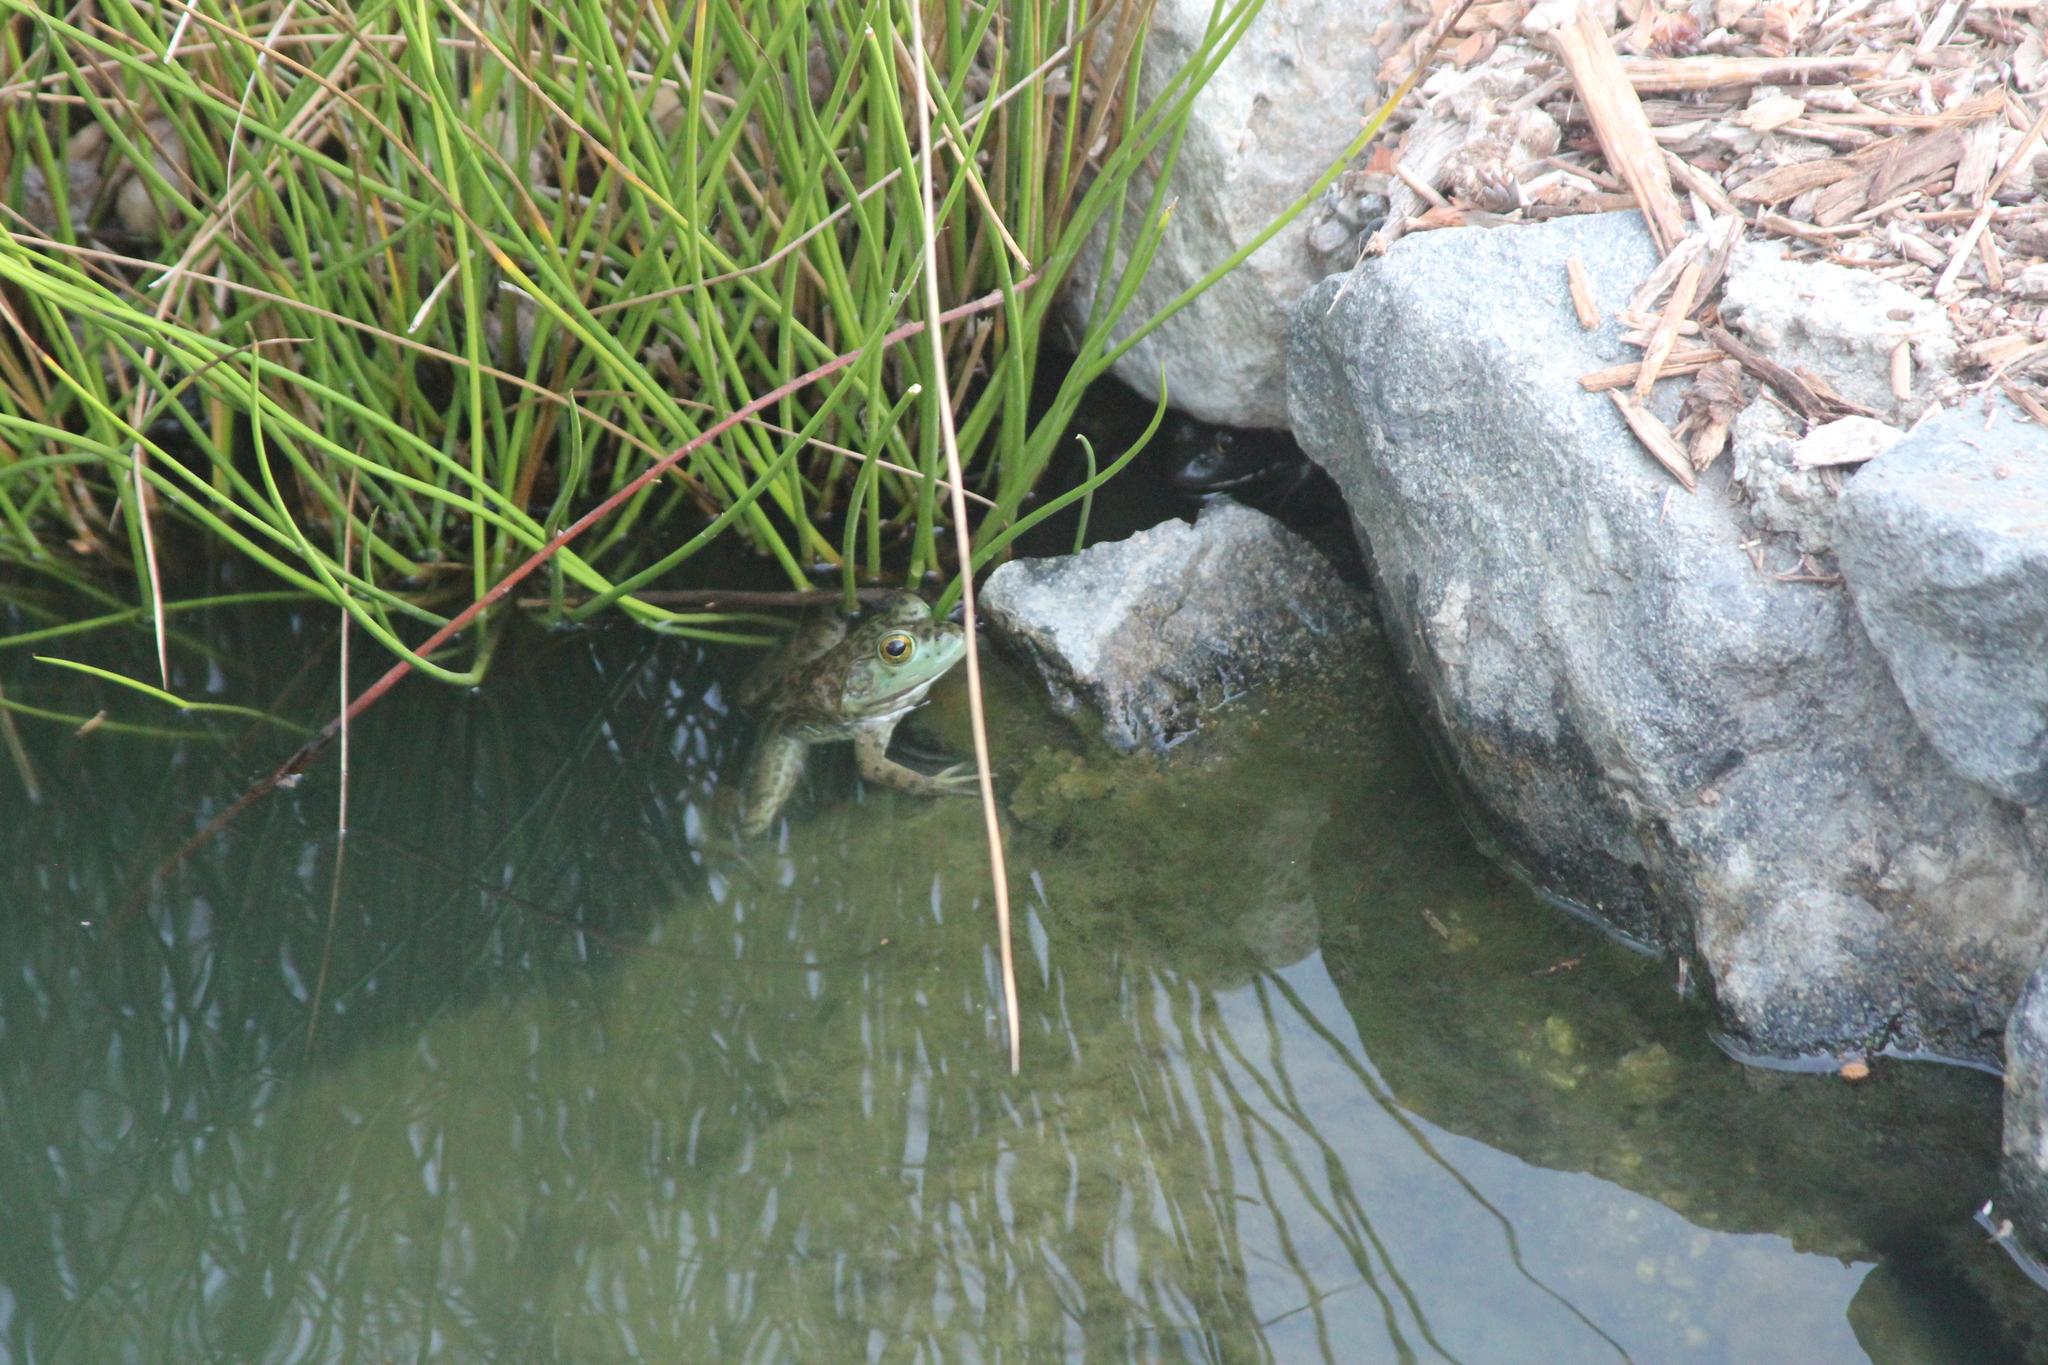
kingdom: Animalia
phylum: Chordata
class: Amphibia
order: Anura
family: Ranidae
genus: Lithobates
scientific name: Lithobates catesbeianus
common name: American bullfrog
